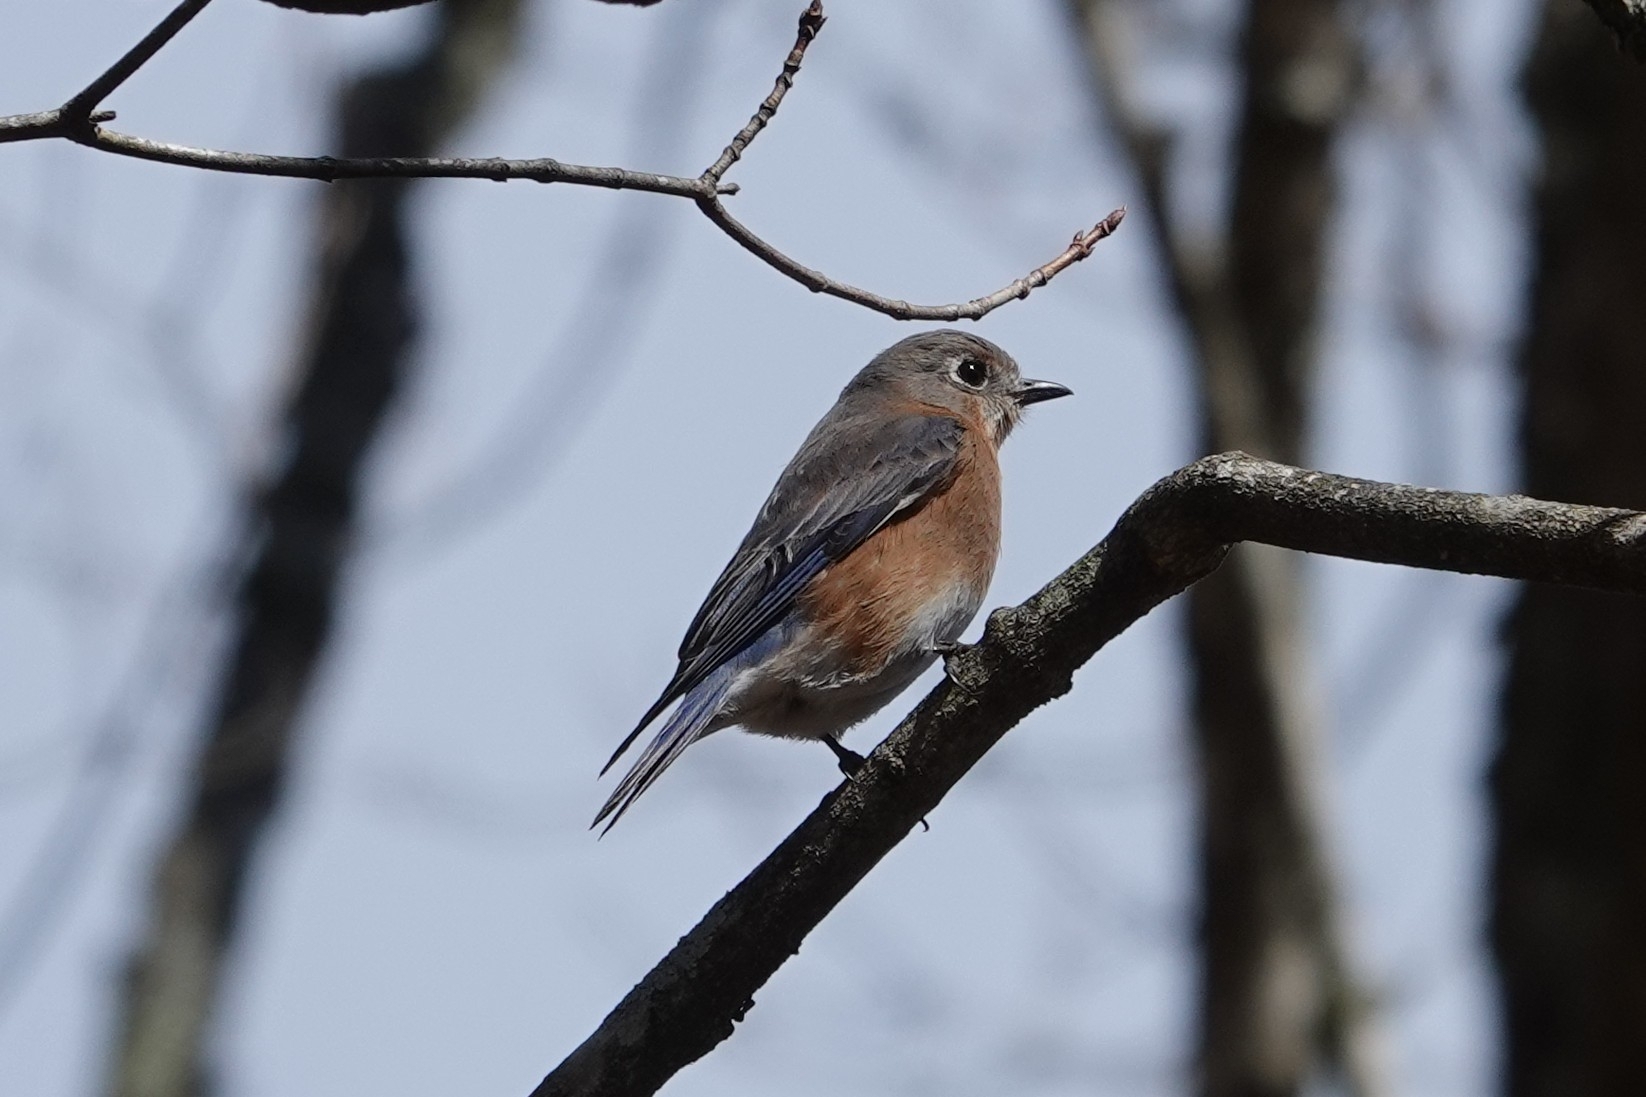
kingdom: Animalia
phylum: Chordata
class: Aves
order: Passeriformes
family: Turdidae
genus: Sialia
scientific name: Sialia sialis
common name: Eastern bluebird
